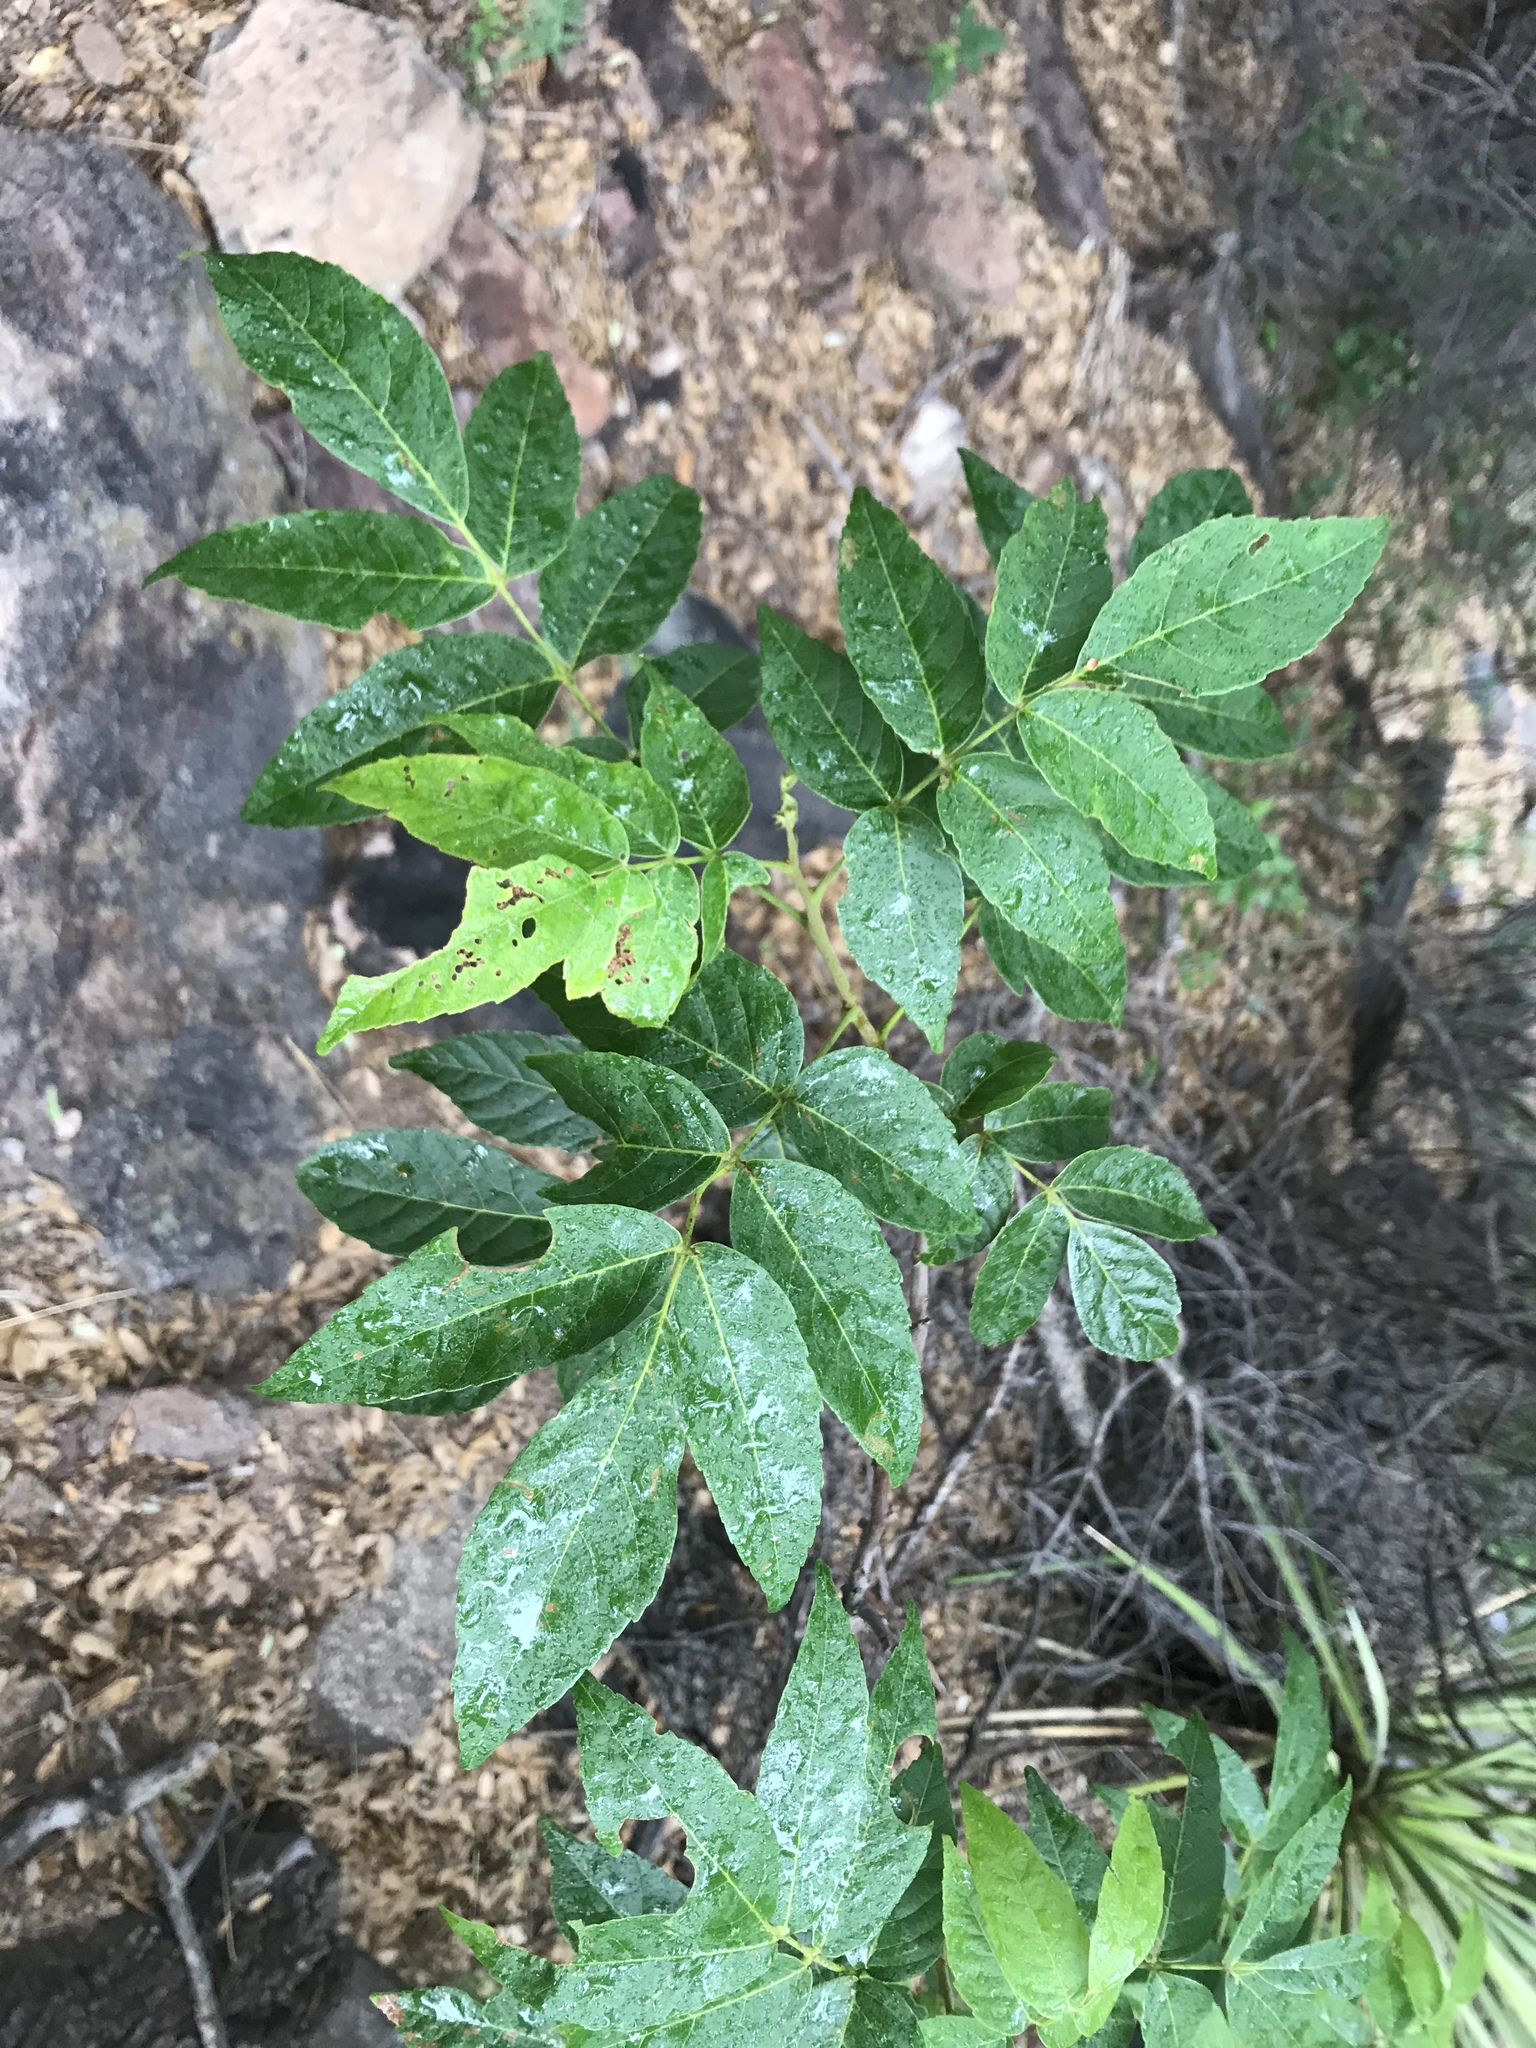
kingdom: Plantae
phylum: Tracheophyta
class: Magnoliopsida
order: Sapindales
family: Sapindaceae
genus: Ungnadia
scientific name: Ungnadia speciosa
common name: Texas-buckeye
